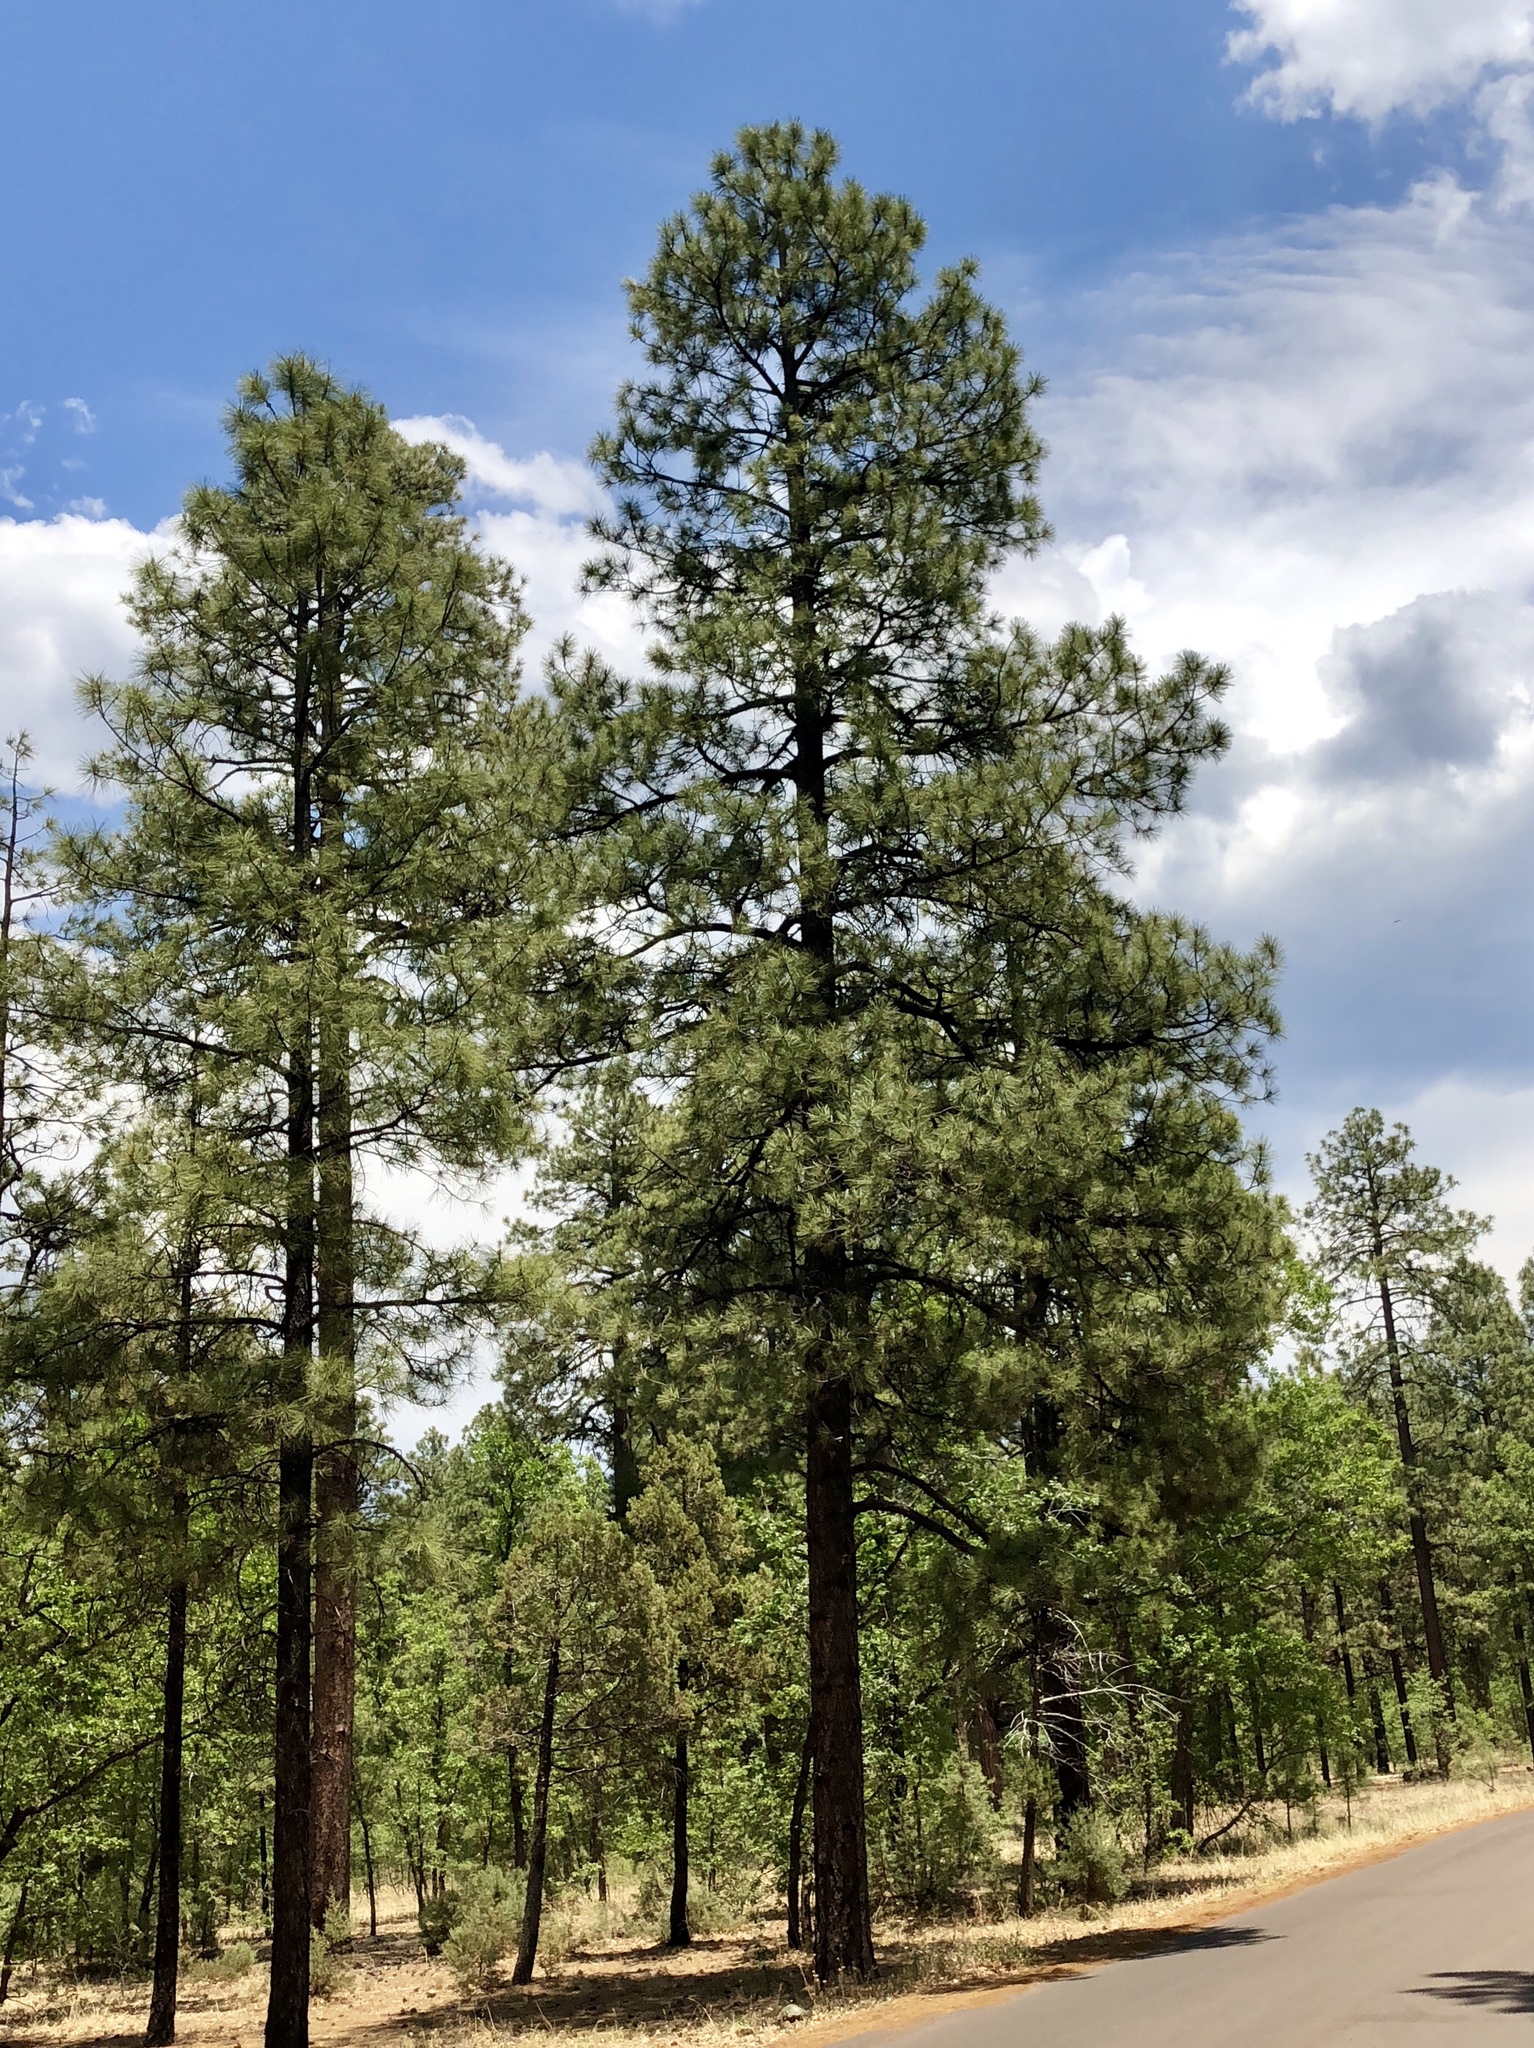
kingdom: Plantae
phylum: Tracheophyta
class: Pinopsida
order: Pinales
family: Pinaceae
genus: Pinus
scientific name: Pinus ponderosa
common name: Western yellow-pine
